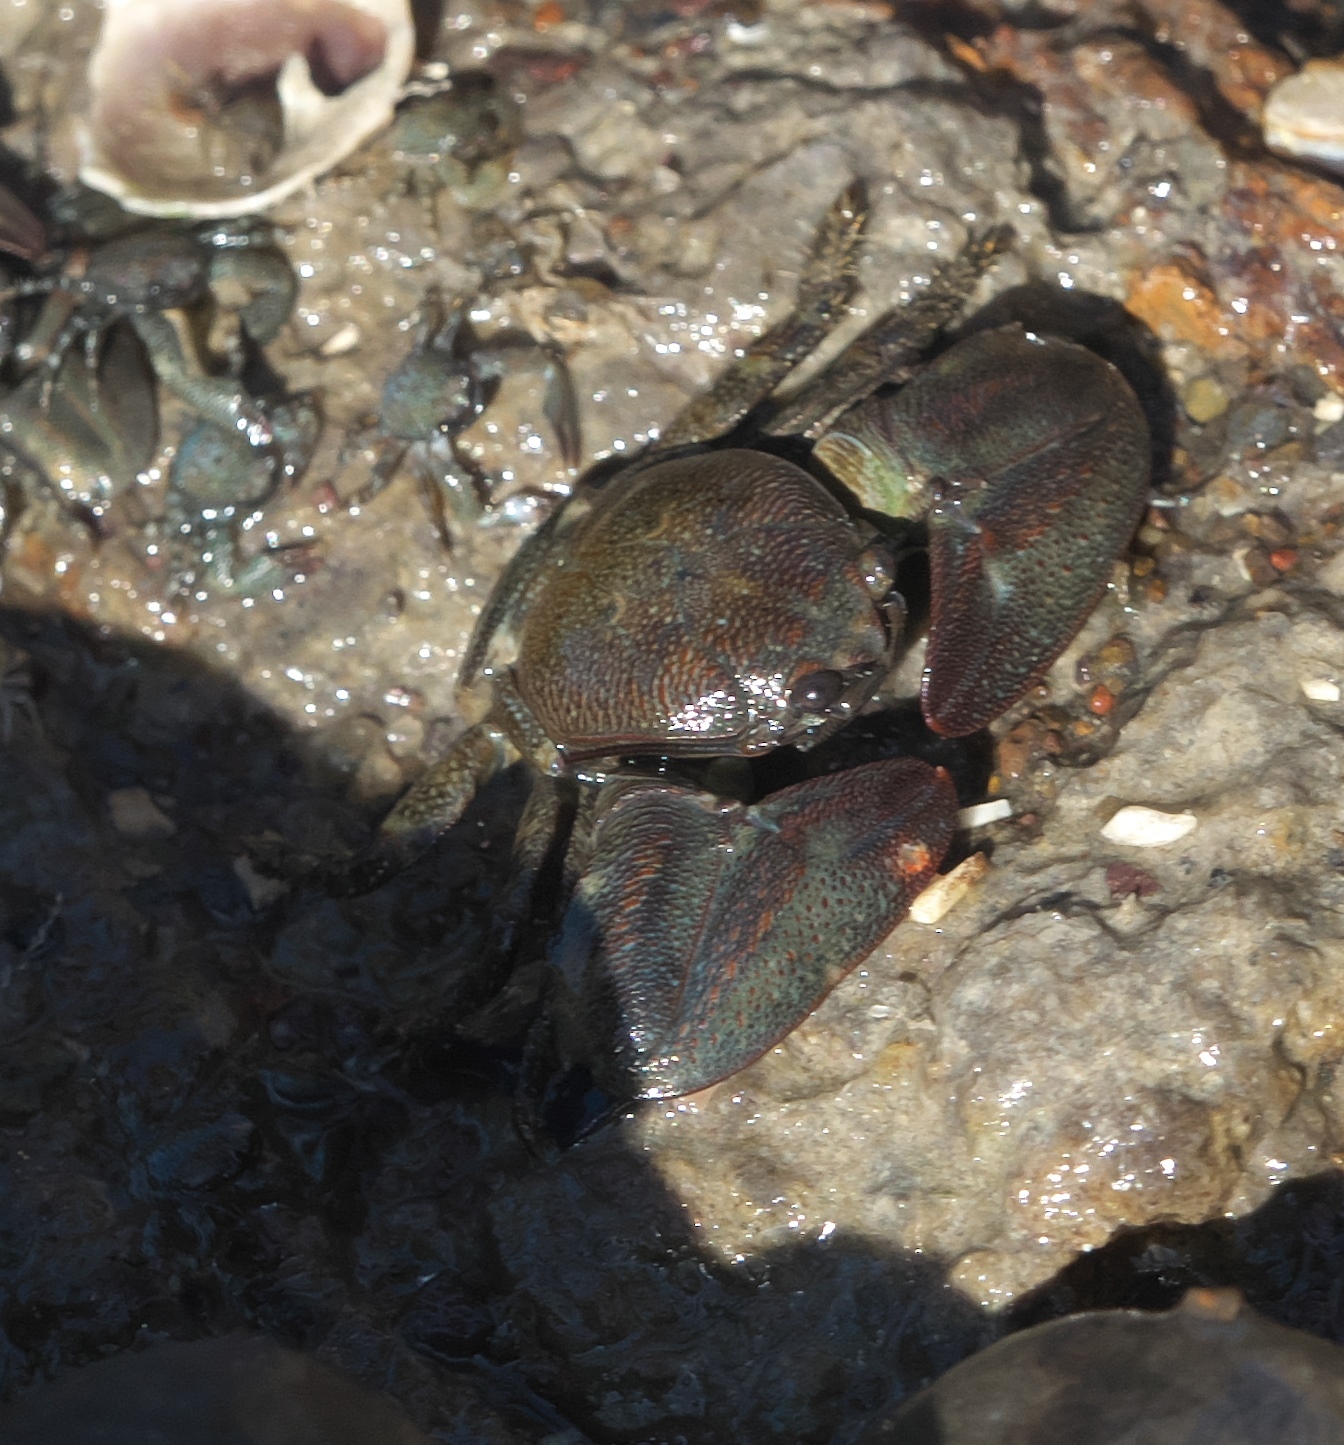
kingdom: Animalia
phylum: Arthropoda
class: Malacostraca
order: Decapoda
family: Porcellanidae
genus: Petrolisthes
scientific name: Petrolisthes elongatus
